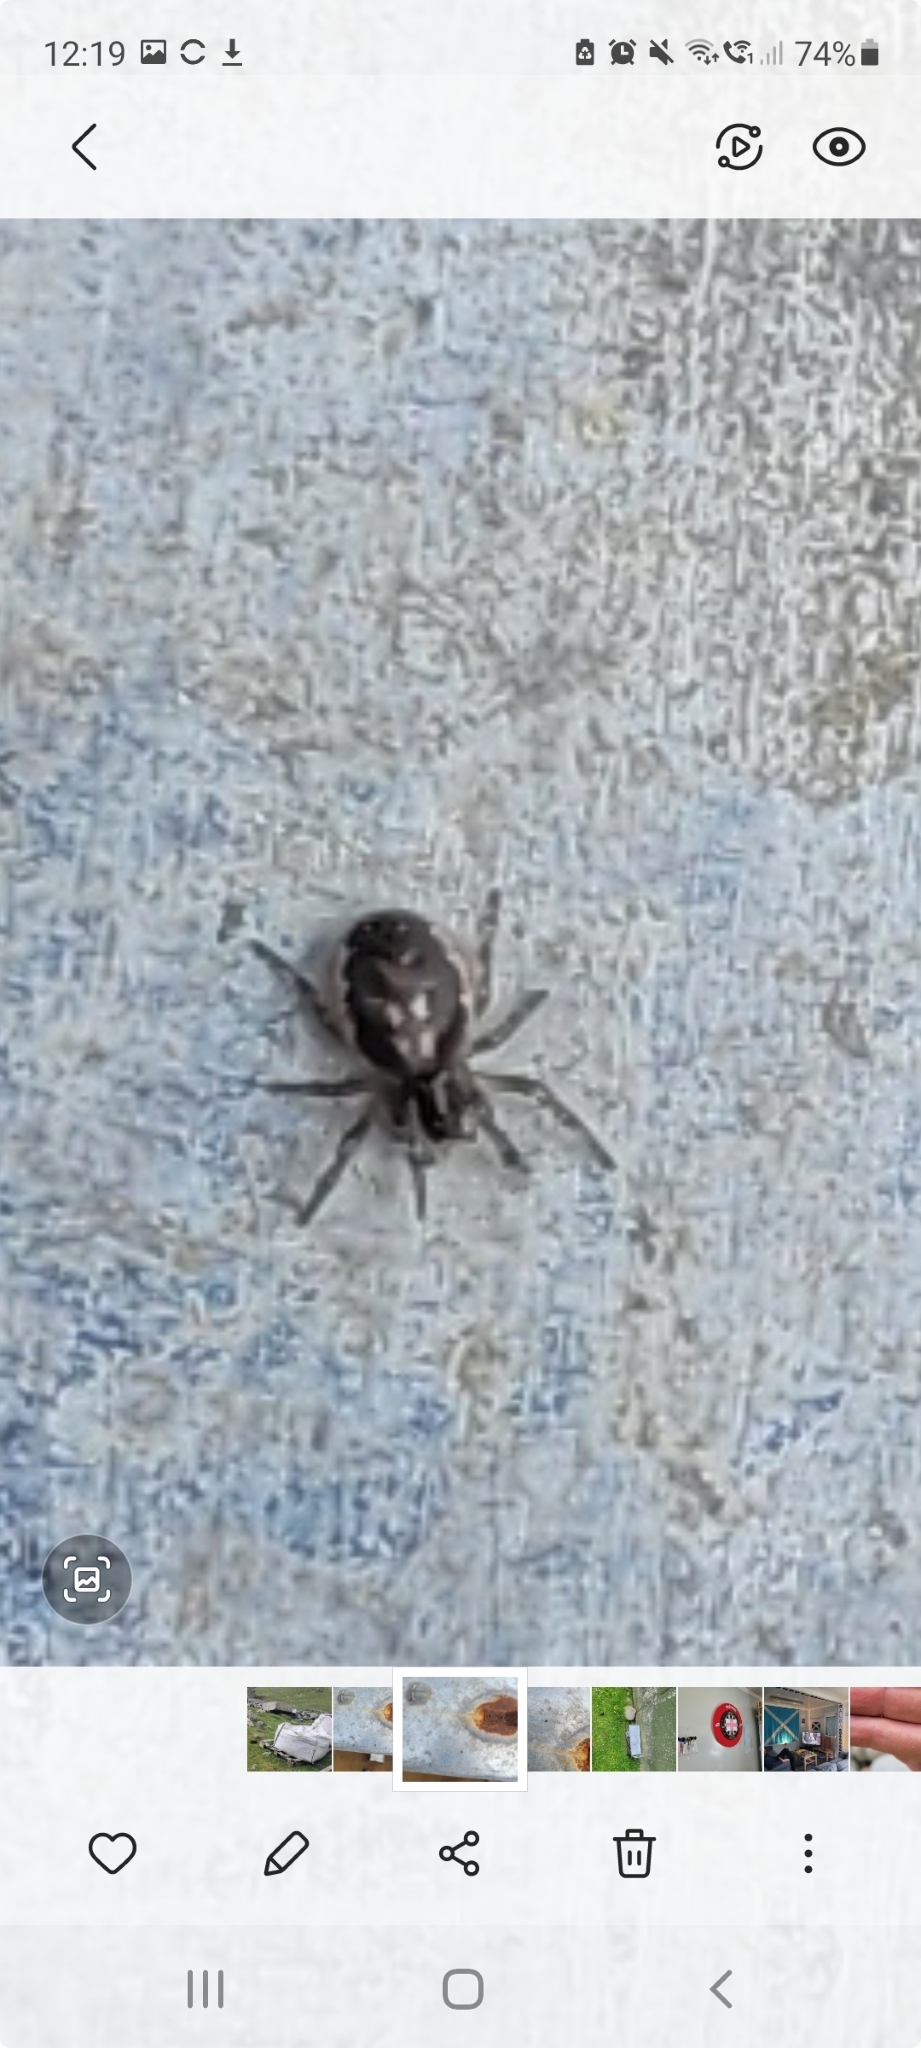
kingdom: Animalia
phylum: Arthropoda
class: Arachnida
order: Araneae
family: Araneidae
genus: Zygiella
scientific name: Zygiella x-notata
